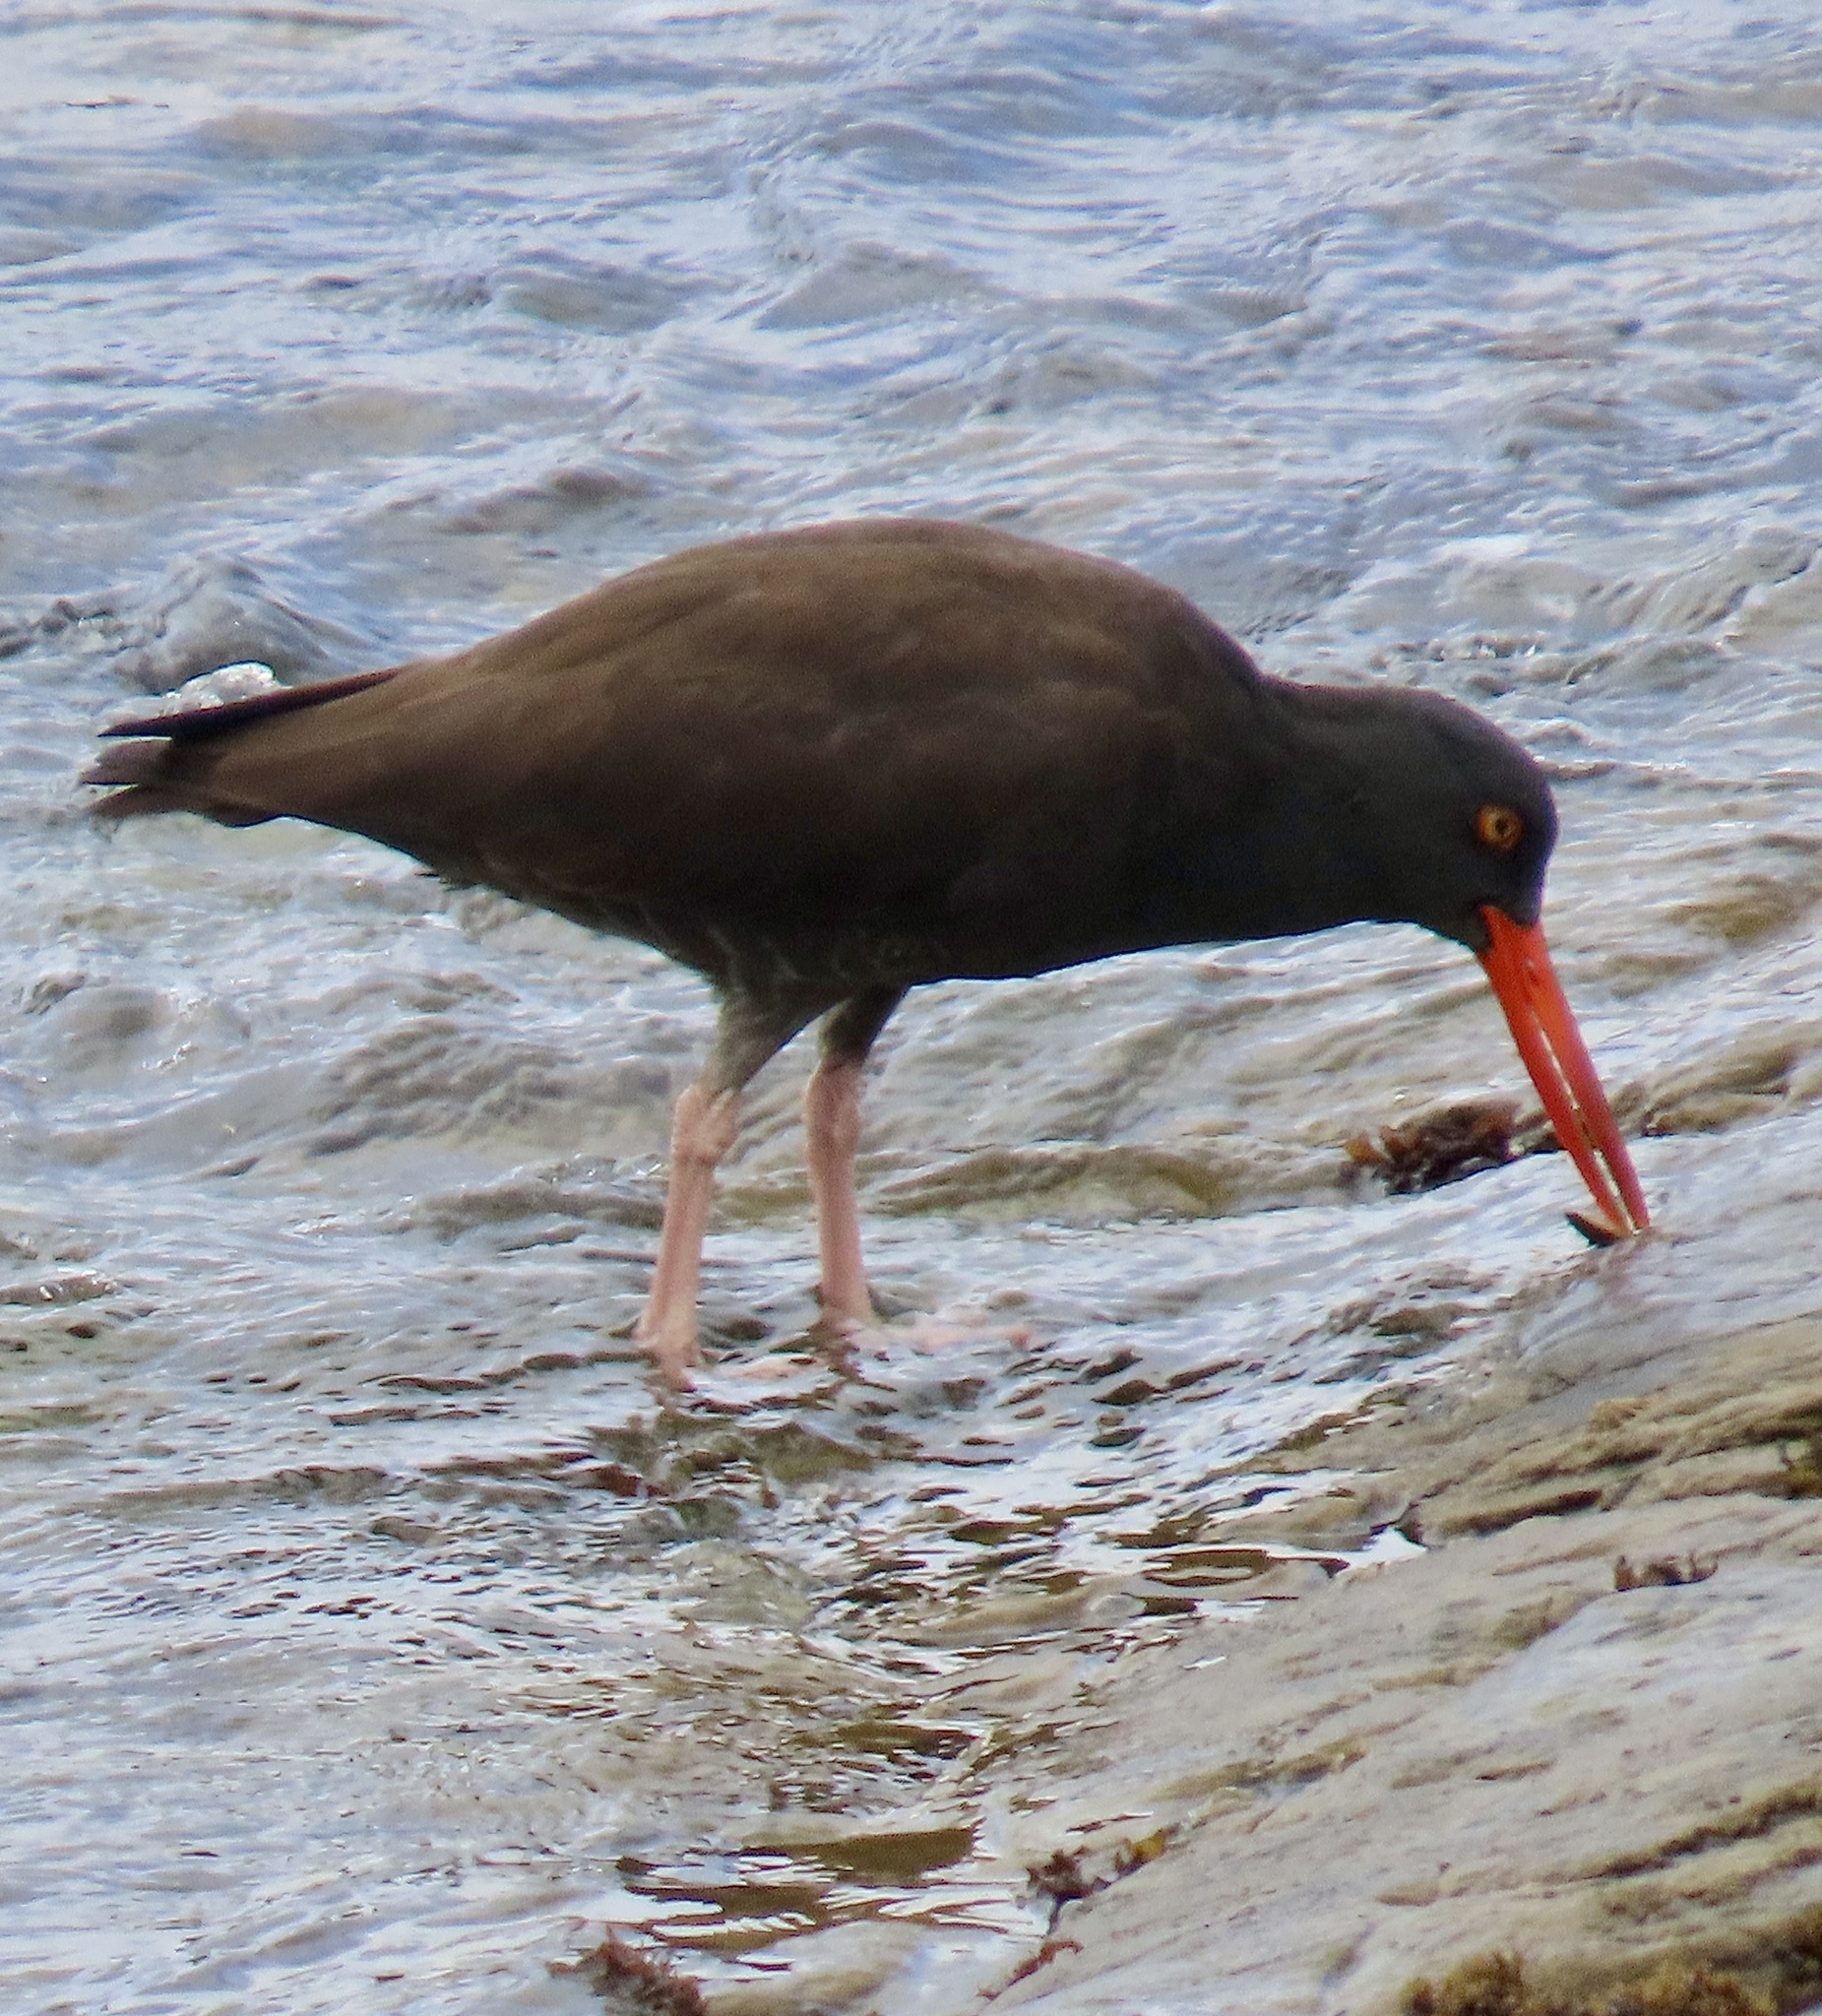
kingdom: Animalia
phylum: Chordata
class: Aves
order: Charadriiformes
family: Haematopodidae
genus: Haematopus
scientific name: Haematopus bachmani
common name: Black oystercatcher
